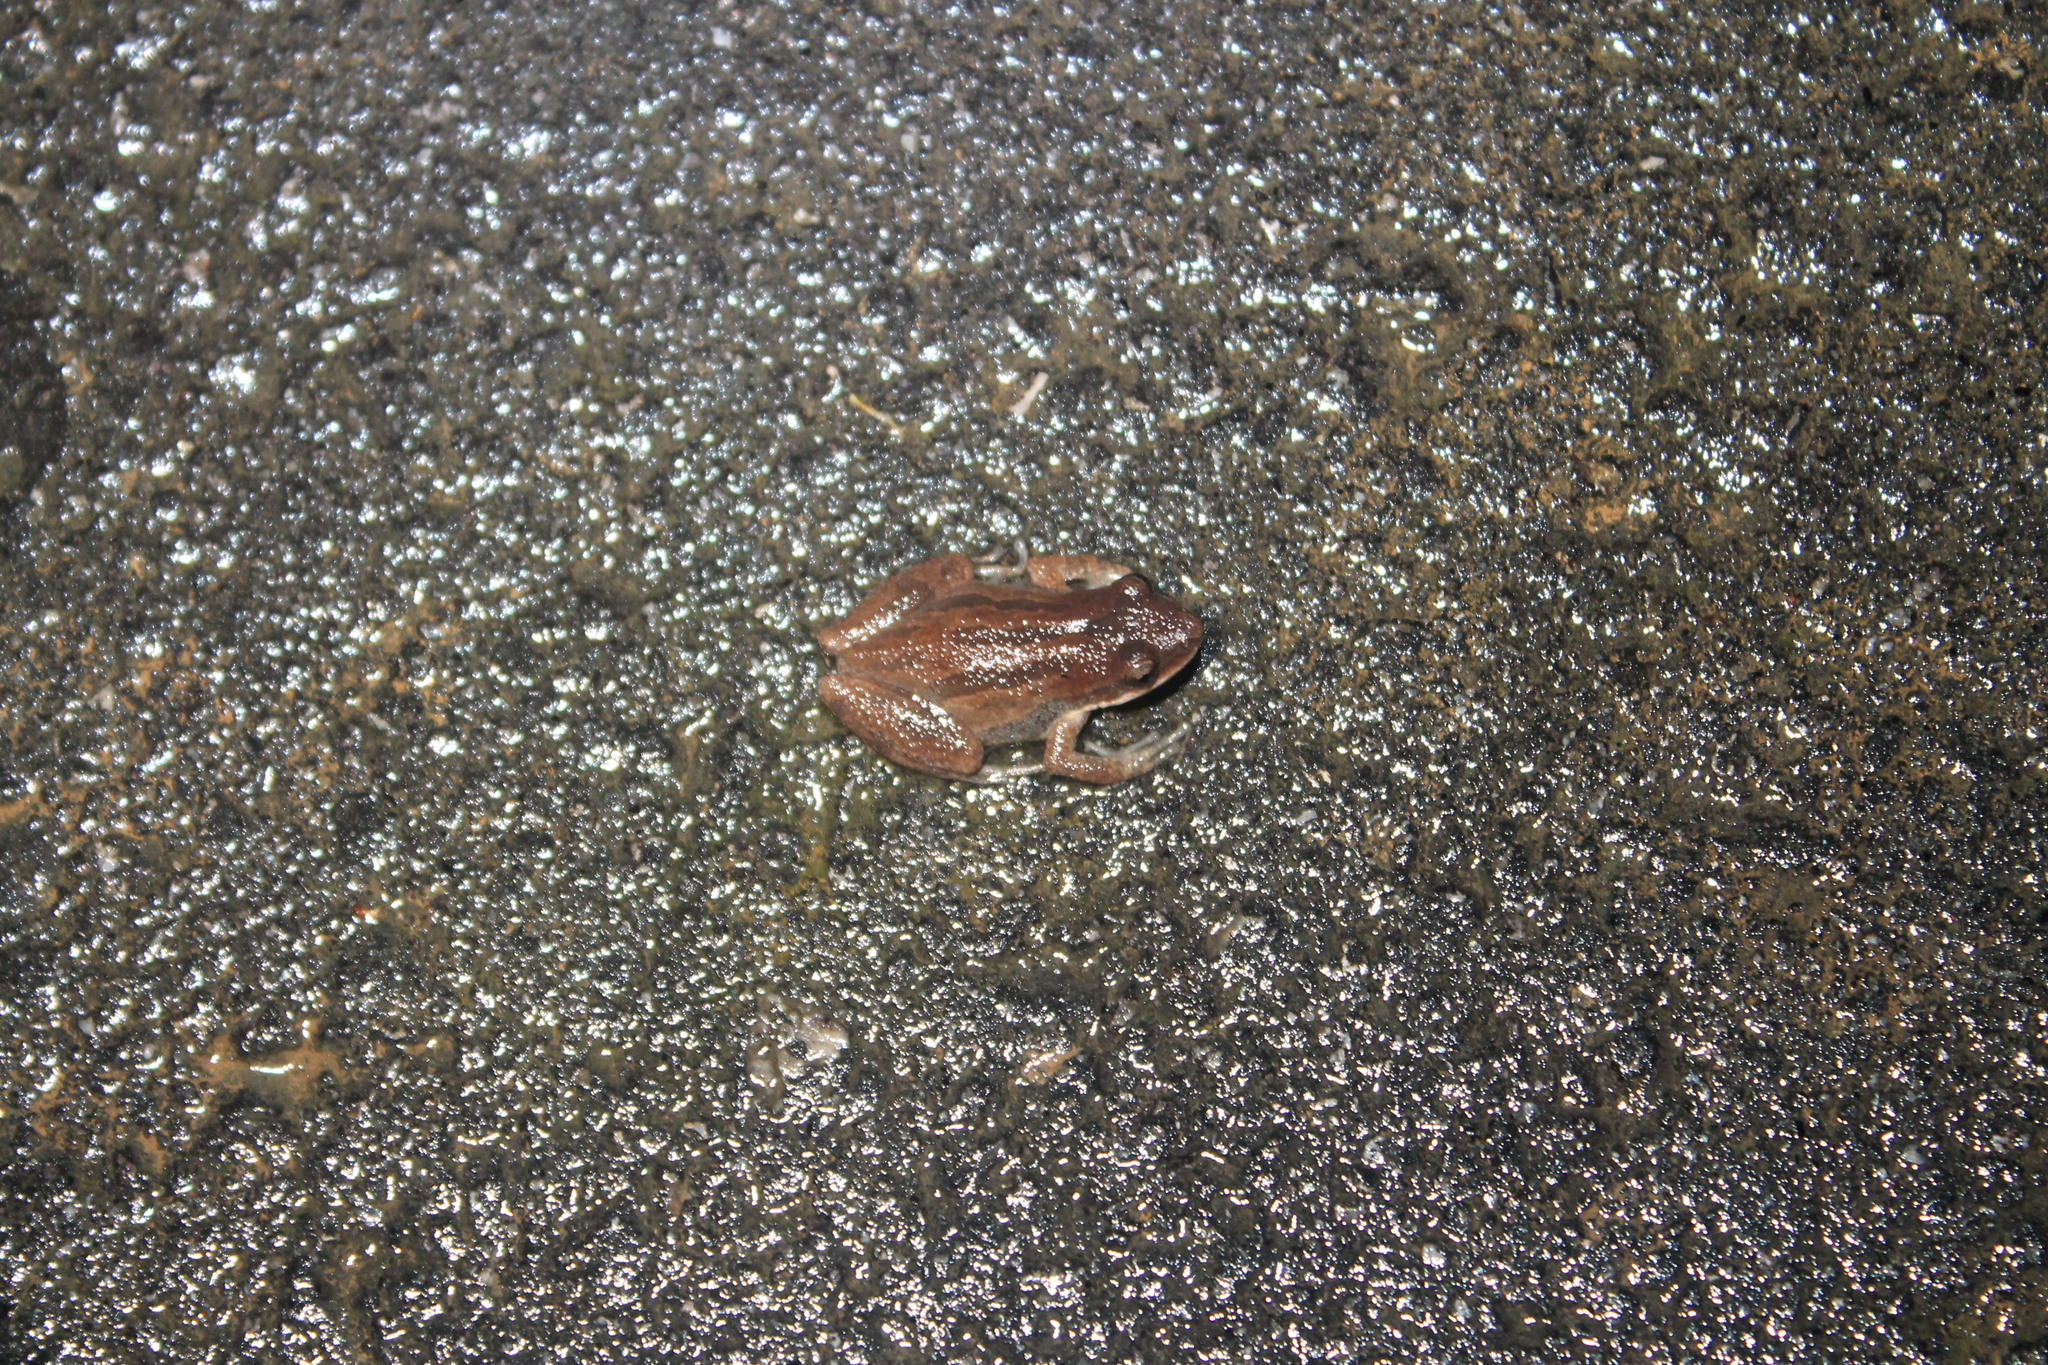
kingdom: Animalia
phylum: Chordata
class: Amphibia
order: Anura
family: Hylidae
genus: Pseudacris
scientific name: Pseudacris feriarum
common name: Upland chorus frog
